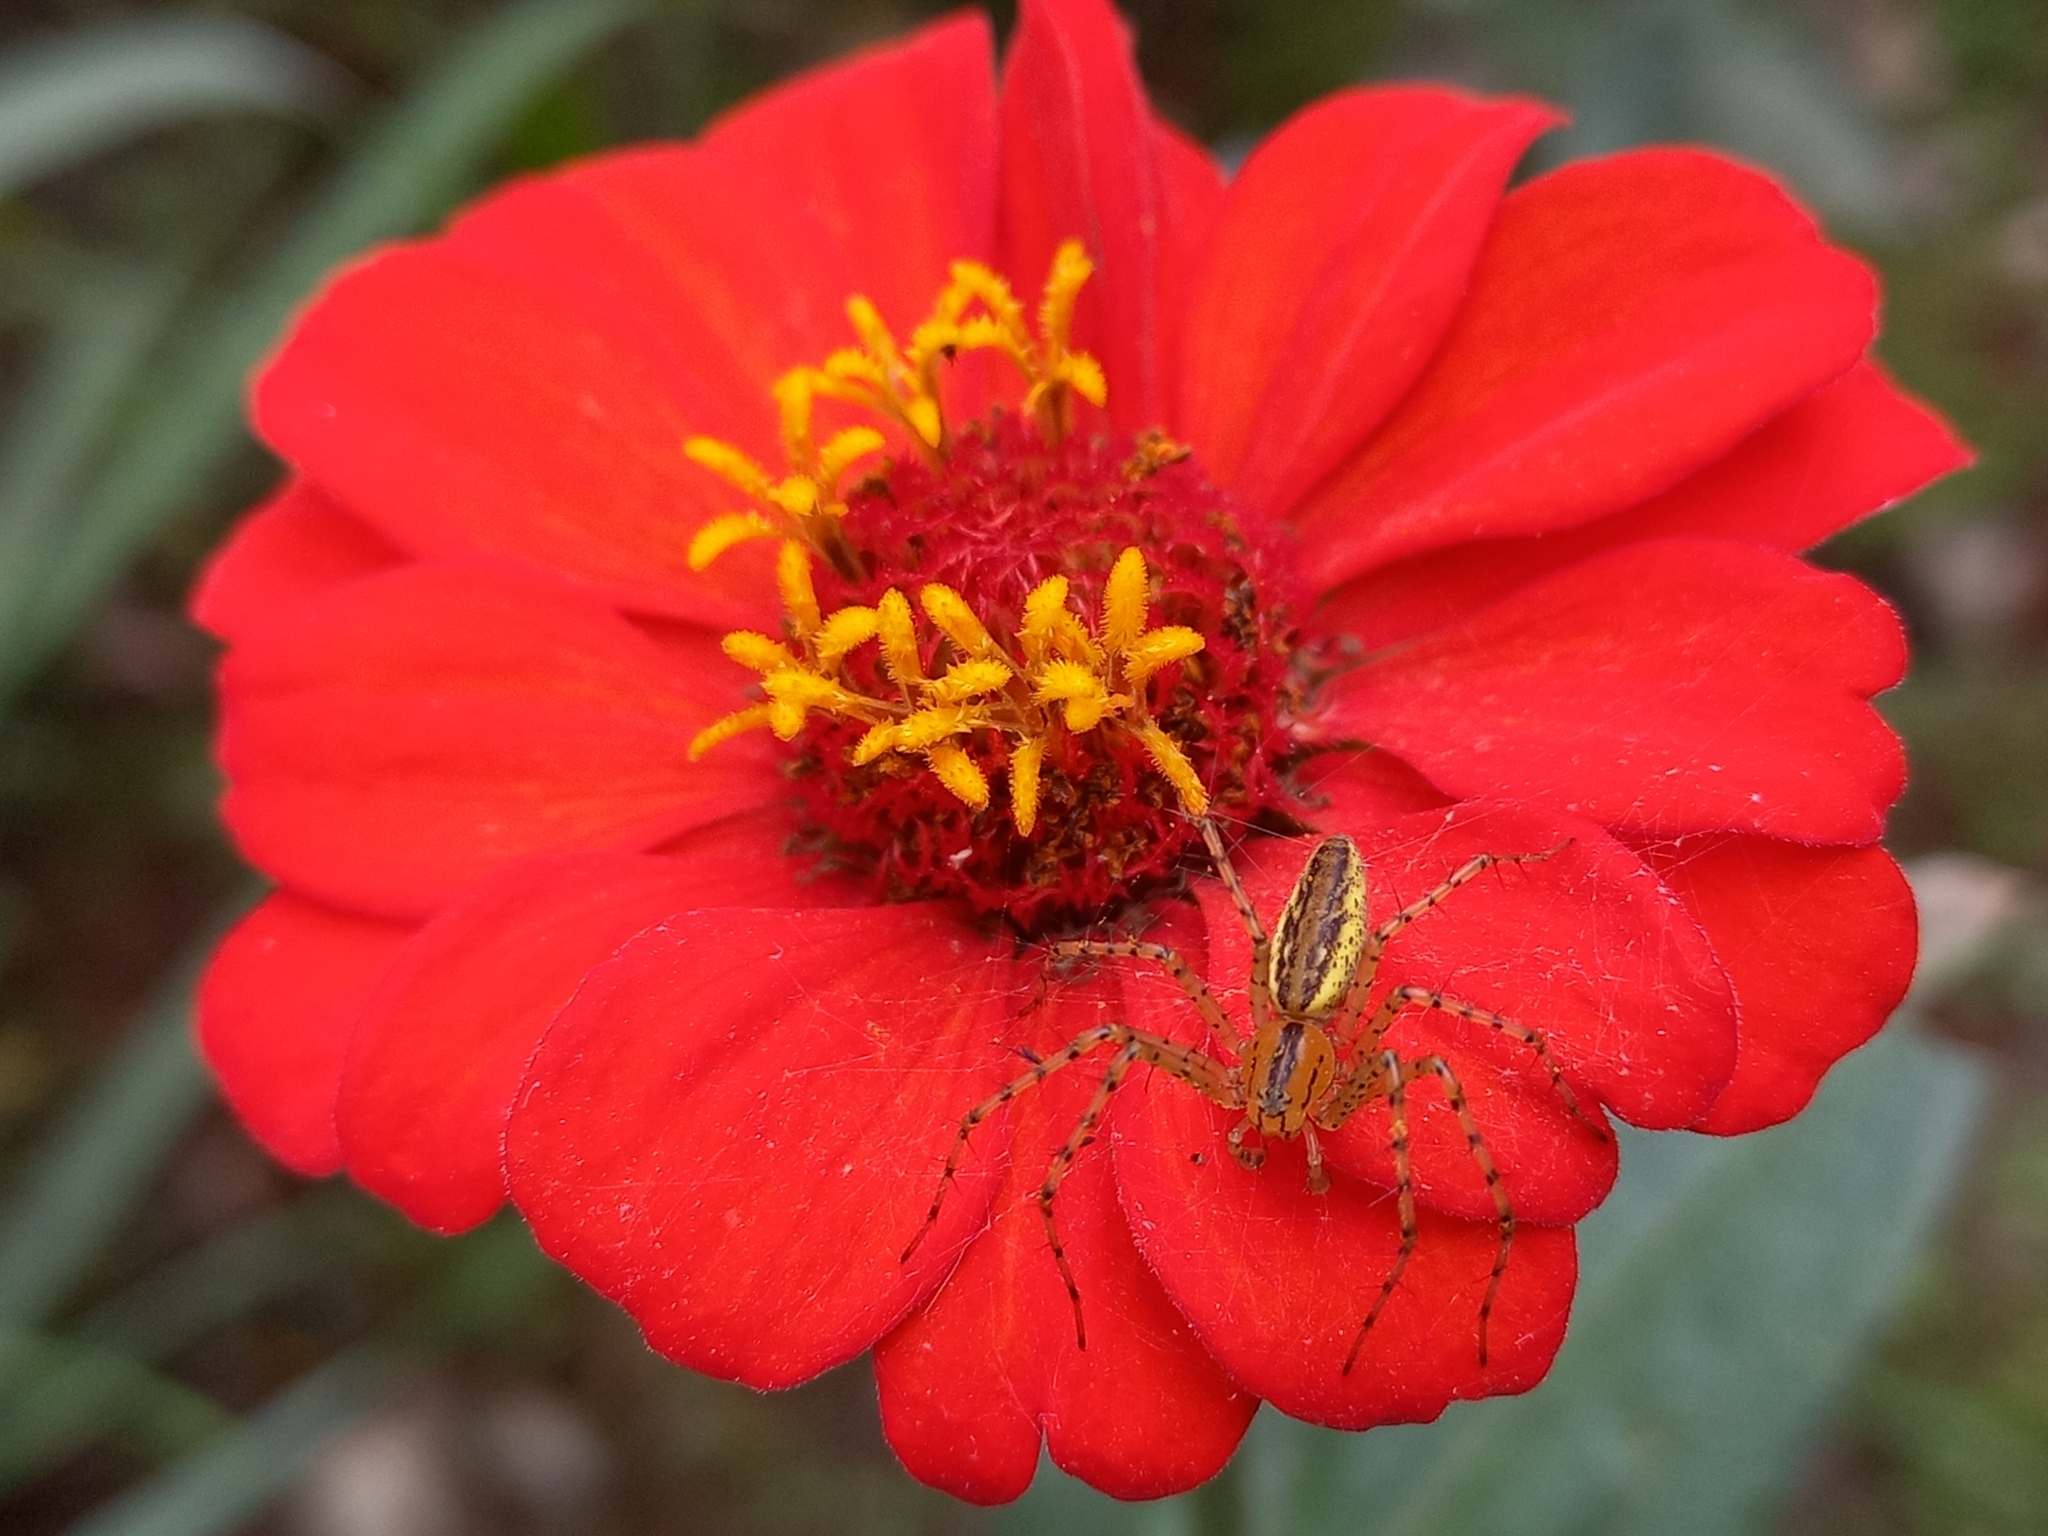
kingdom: Animalia
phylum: Arthropoda
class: Arachnida
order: Araneae
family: Oxyopidae
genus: Peucetia
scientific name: Peucetia rubrolineata
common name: Lynx spiders
